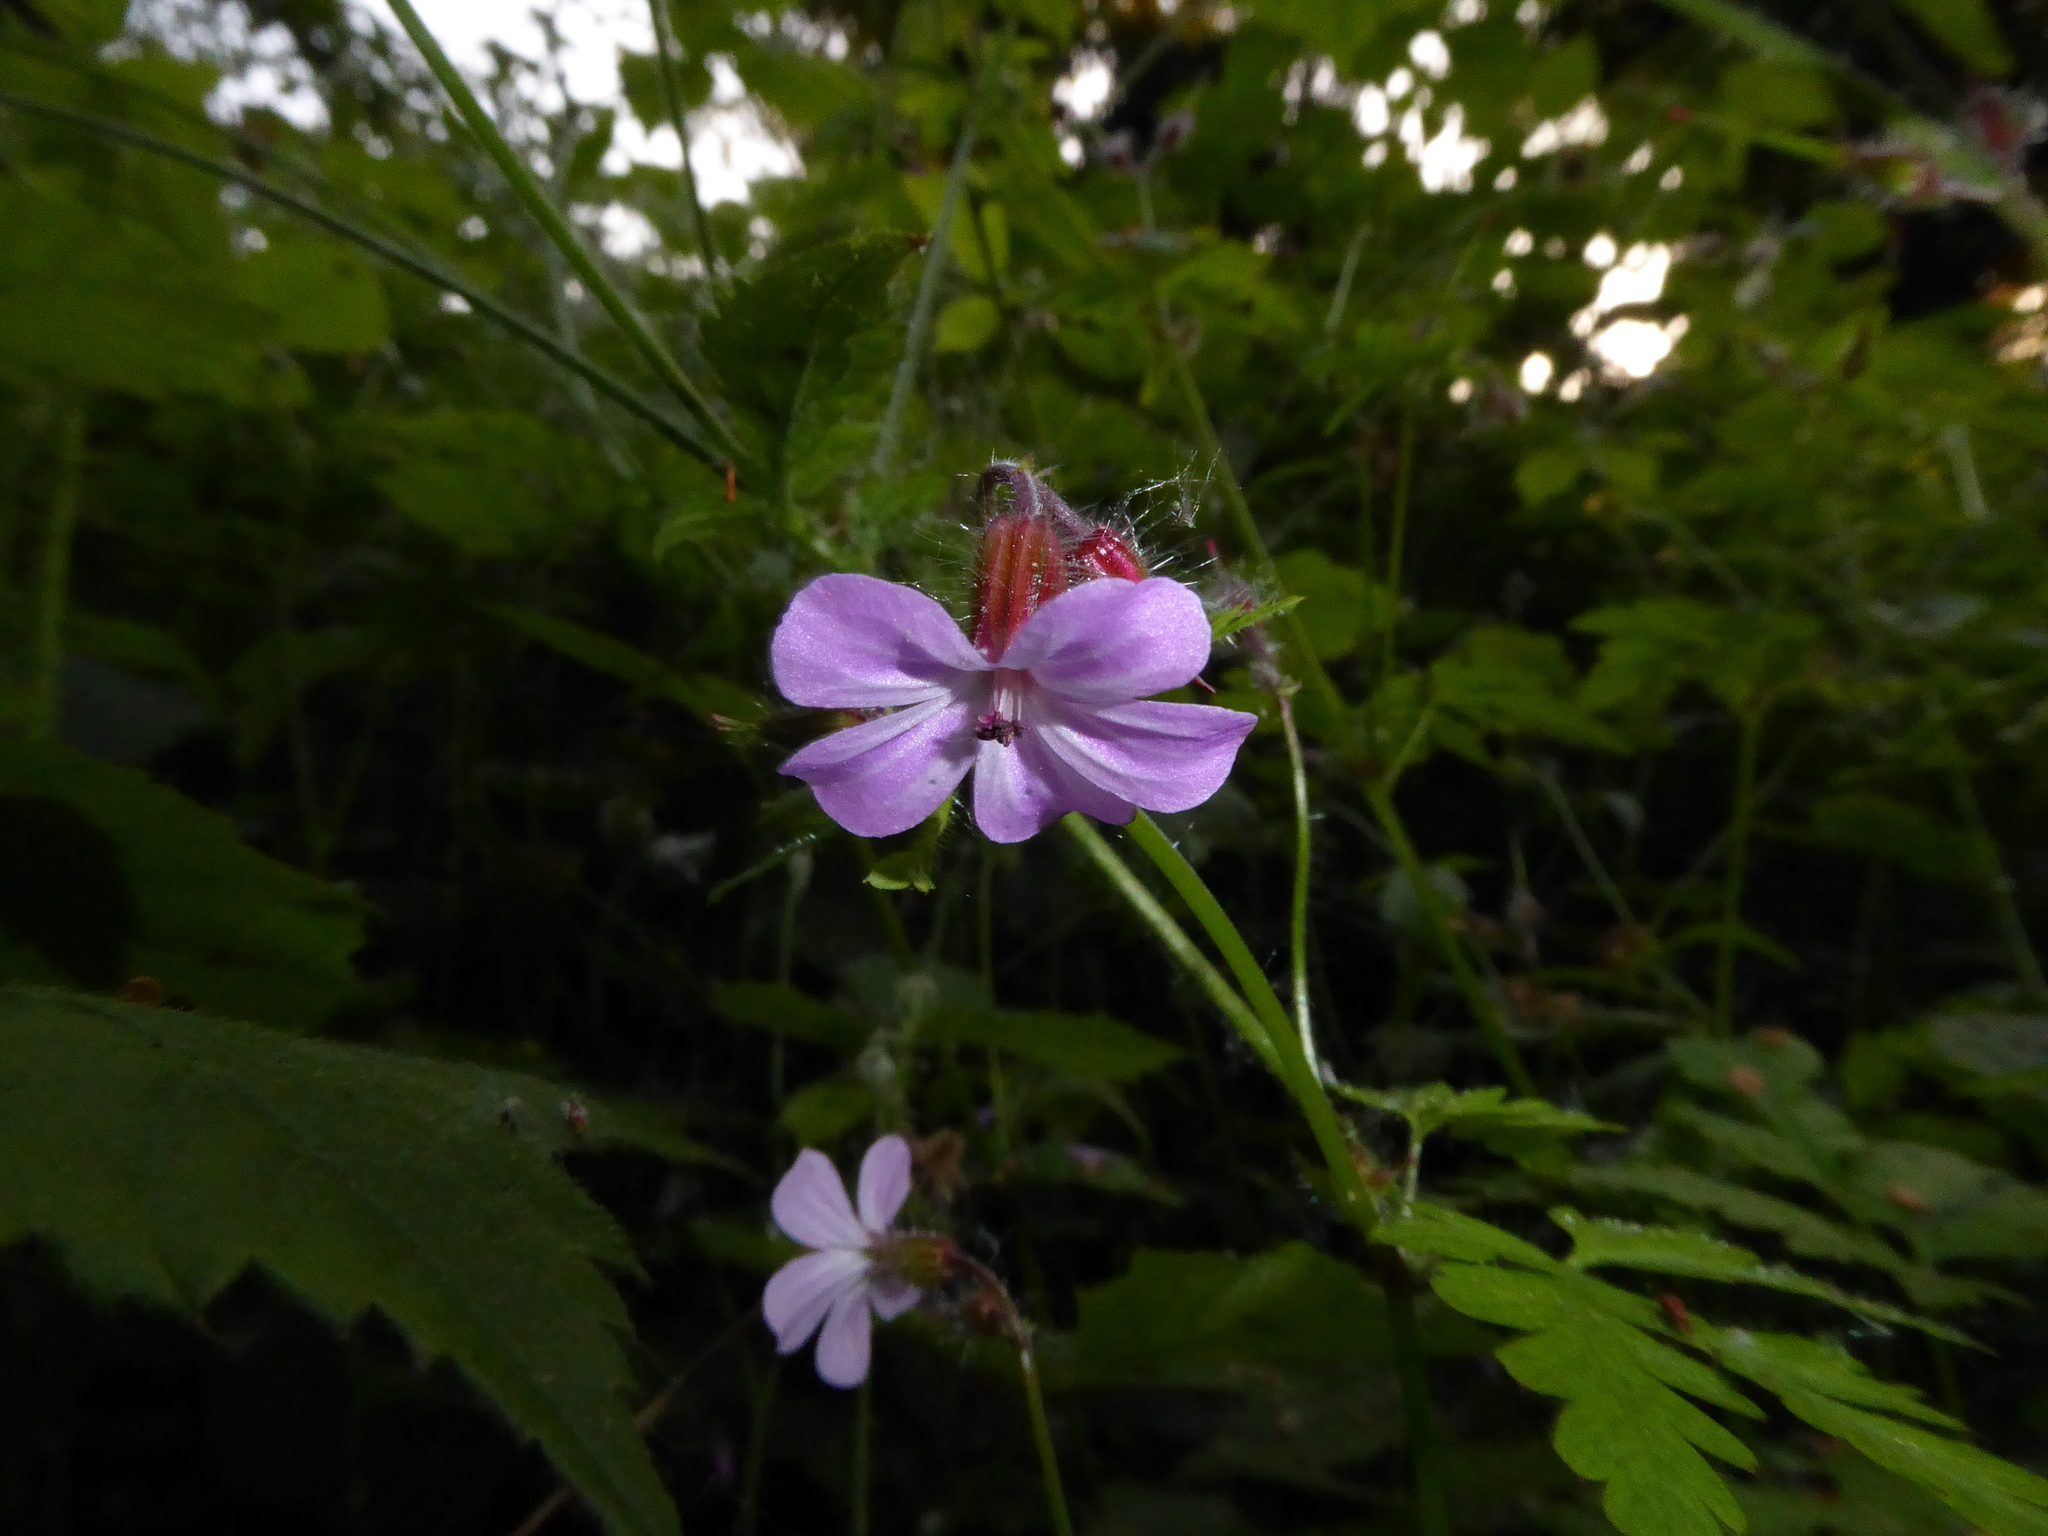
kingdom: Plantae
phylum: Tracheophyta
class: Magnoliopsida
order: Geraniales
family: Geraniaceae
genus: Geranium
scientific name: Geranium robertianum
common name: Herb-robert
